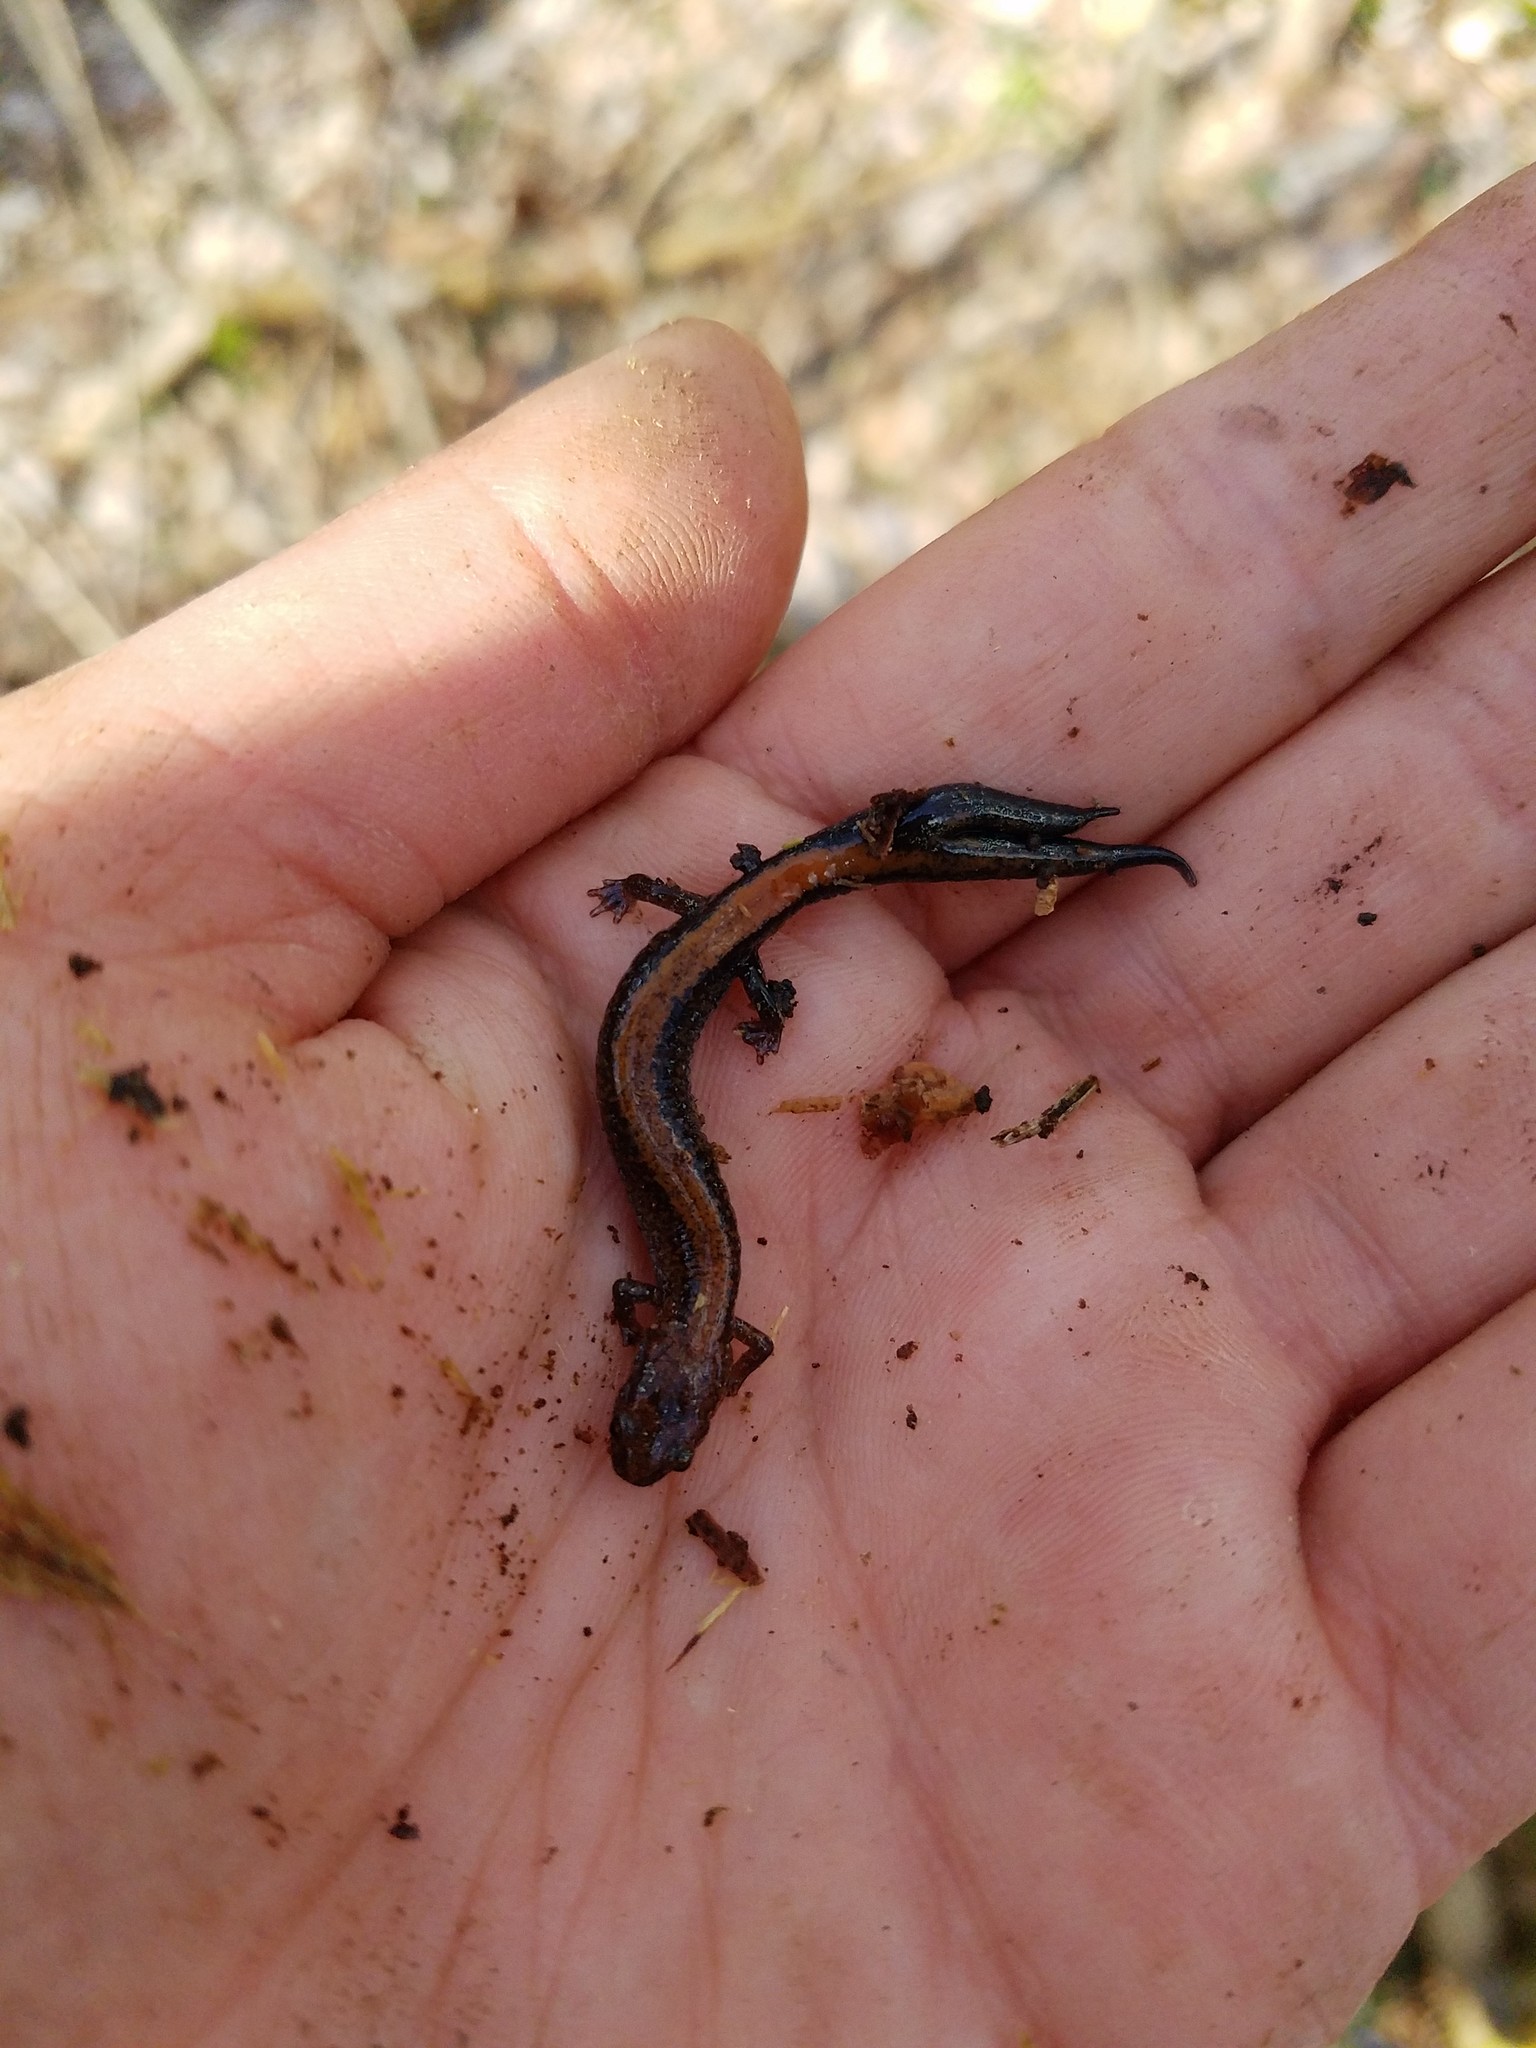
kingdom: Animalia
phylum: Chordata
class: Amphibia
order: Caudata
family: Plethodontidae
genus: Plethodon
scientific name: Plethodon cinereus
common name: Redback salamander
